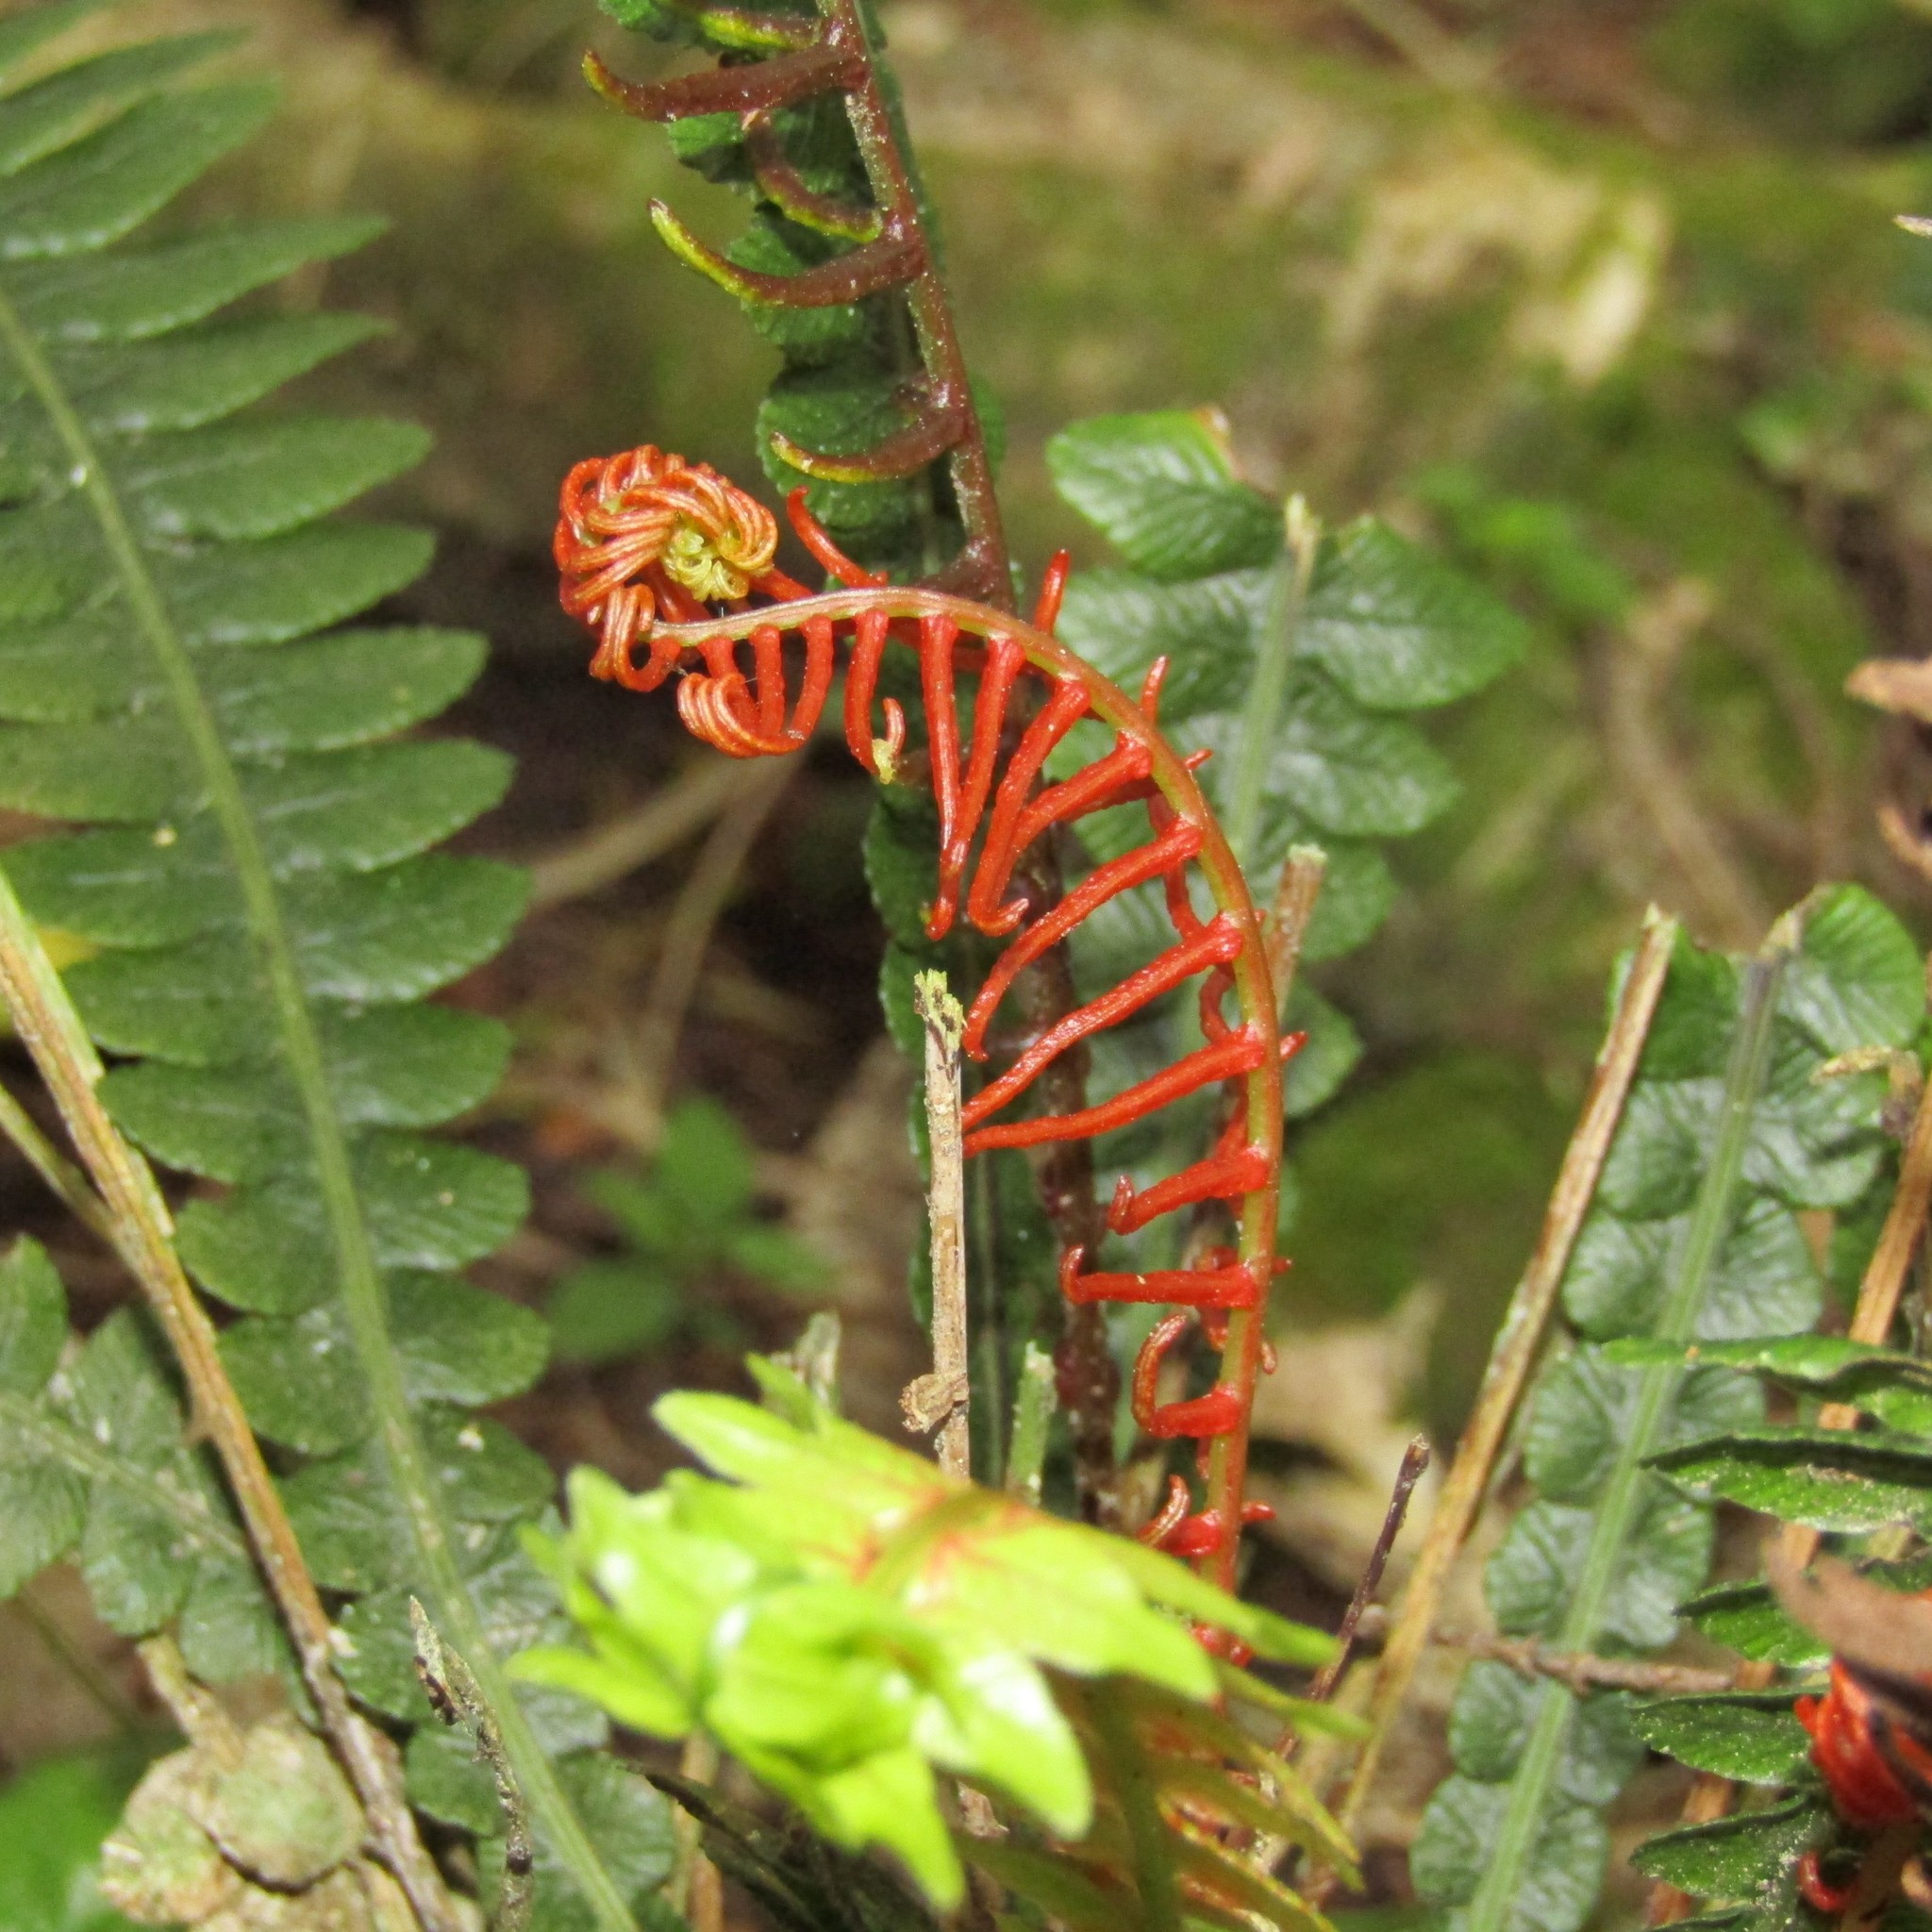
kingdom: Plantae
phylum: Tracheophyta
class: Polypodiopsida
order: Polypodiales
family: Blechnaceae
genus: Austroblechnum
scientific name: Austroblechnum lanceolatum
